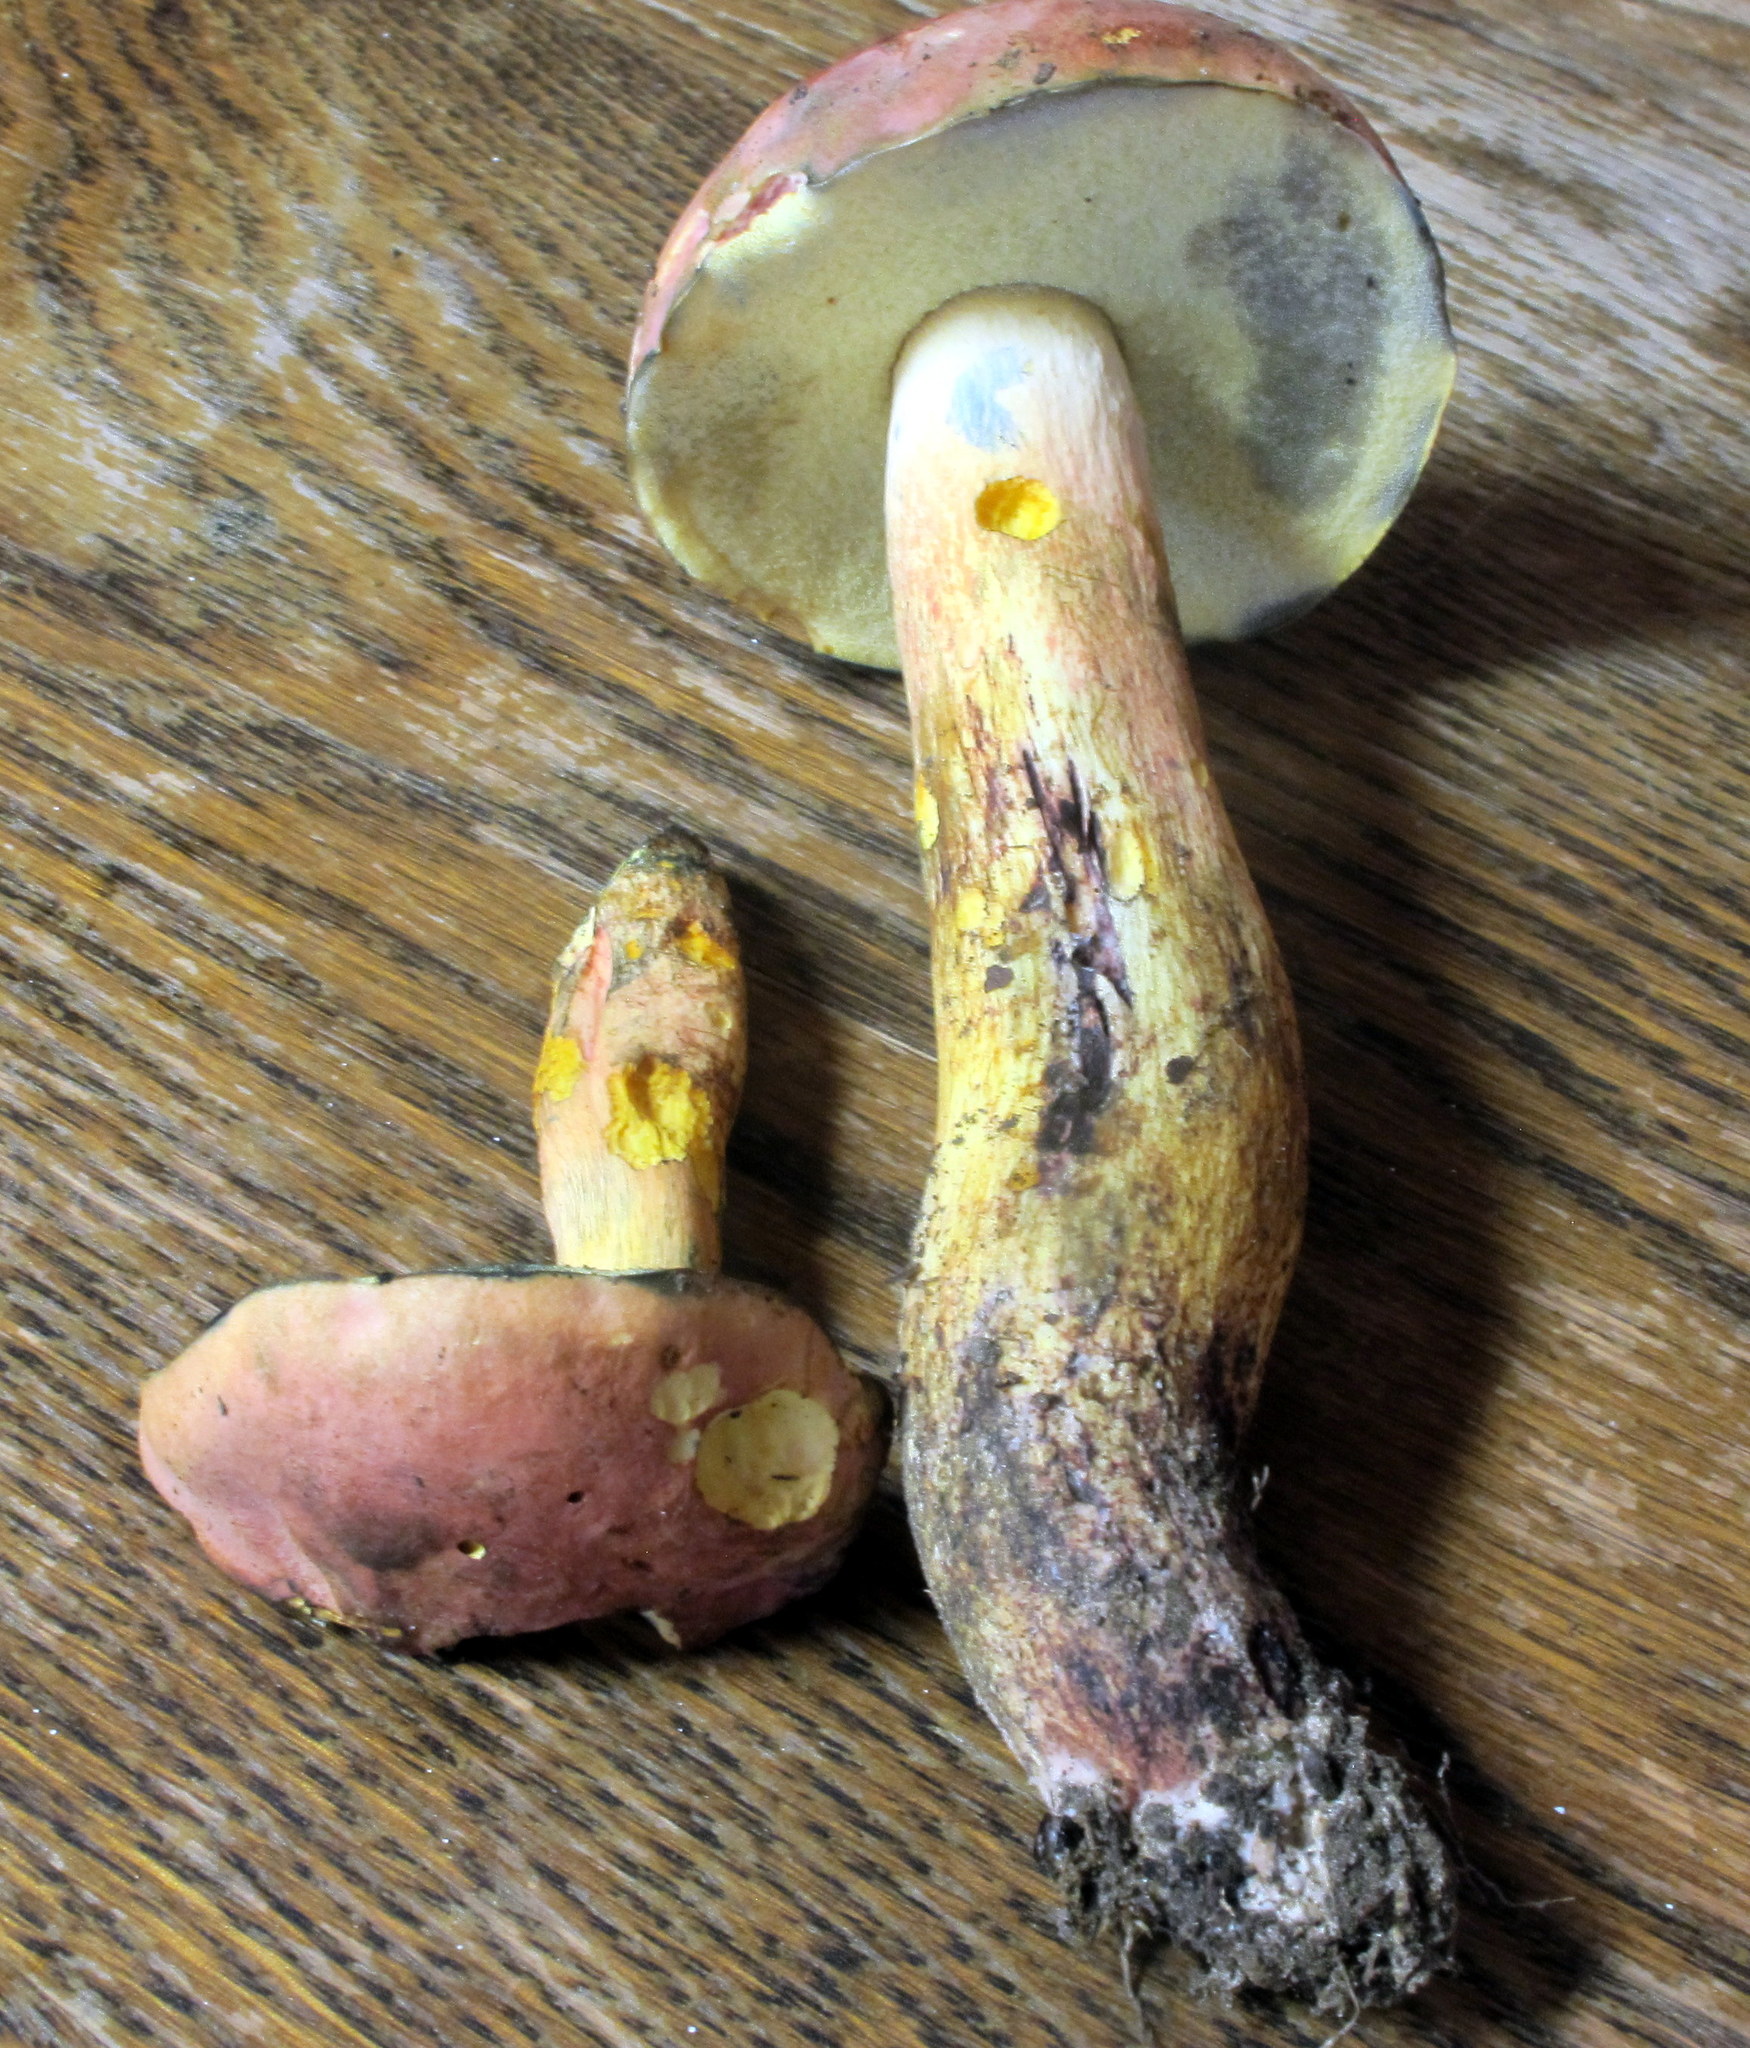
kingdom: Fungi
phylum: Basidiomycota
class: Agaricomycetes
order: Boletales
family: Boletaceae
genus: Boletus
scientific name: Boletus sensibilis
